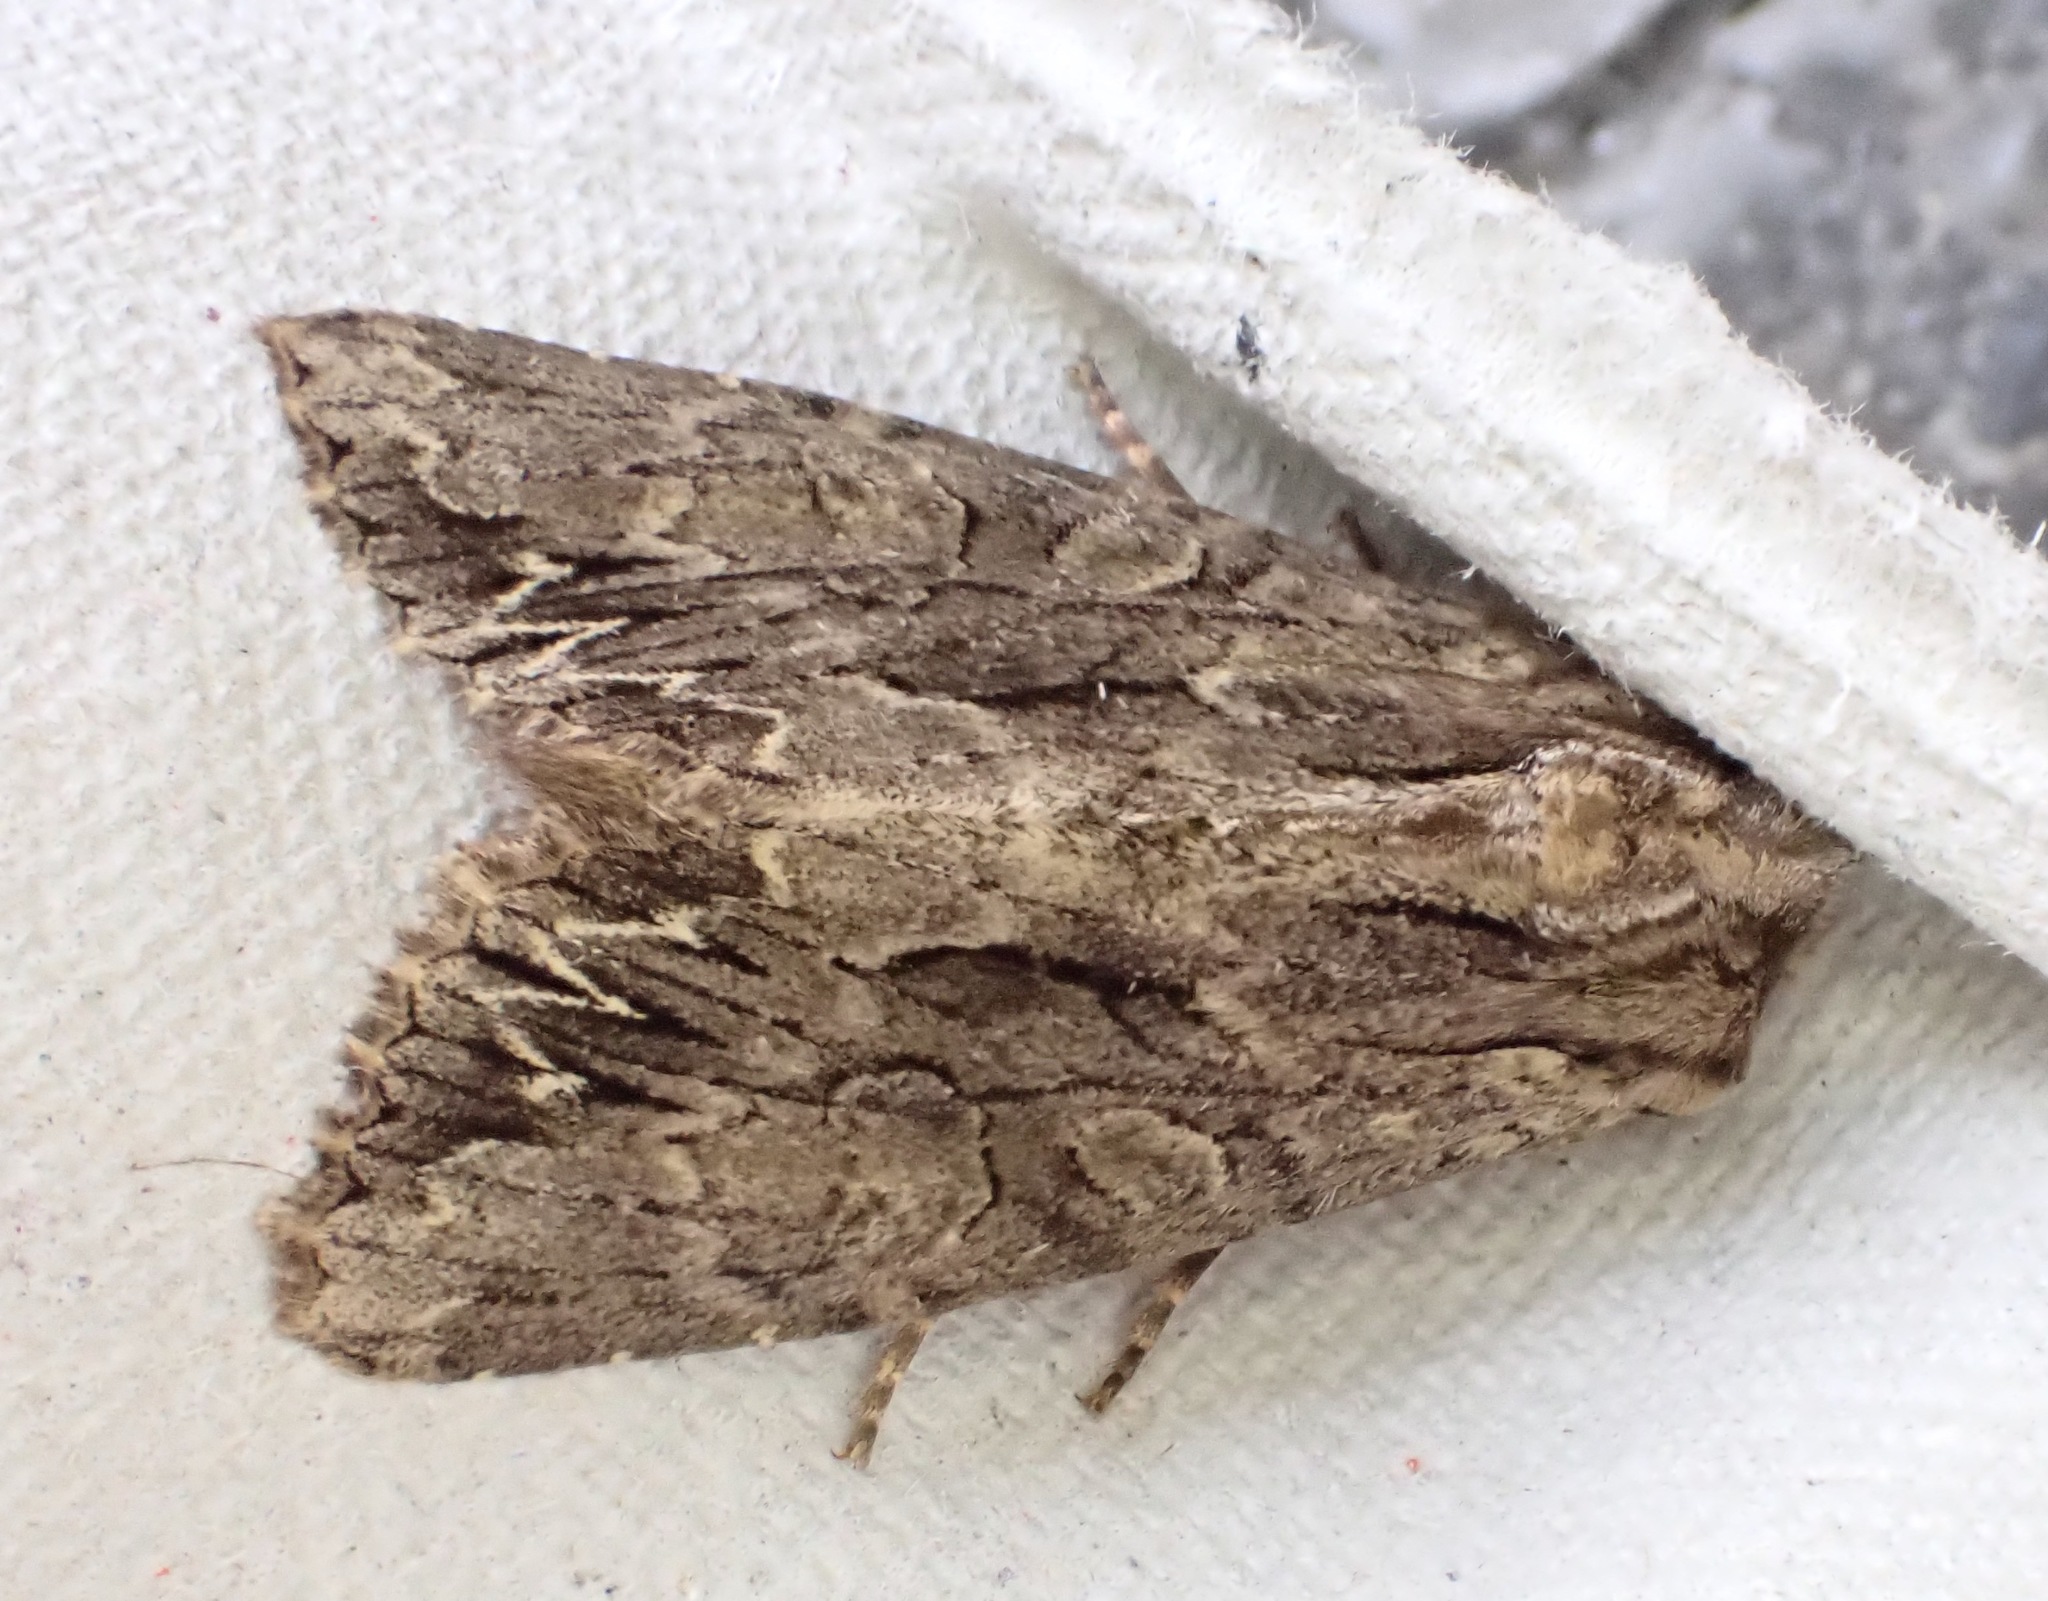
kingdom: Animalia
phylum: Arthropoda
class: Insecta
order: Lepidoptera
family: Noctuidae
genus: Apamea
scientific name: Apamea monoglypha
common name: Dark arches
